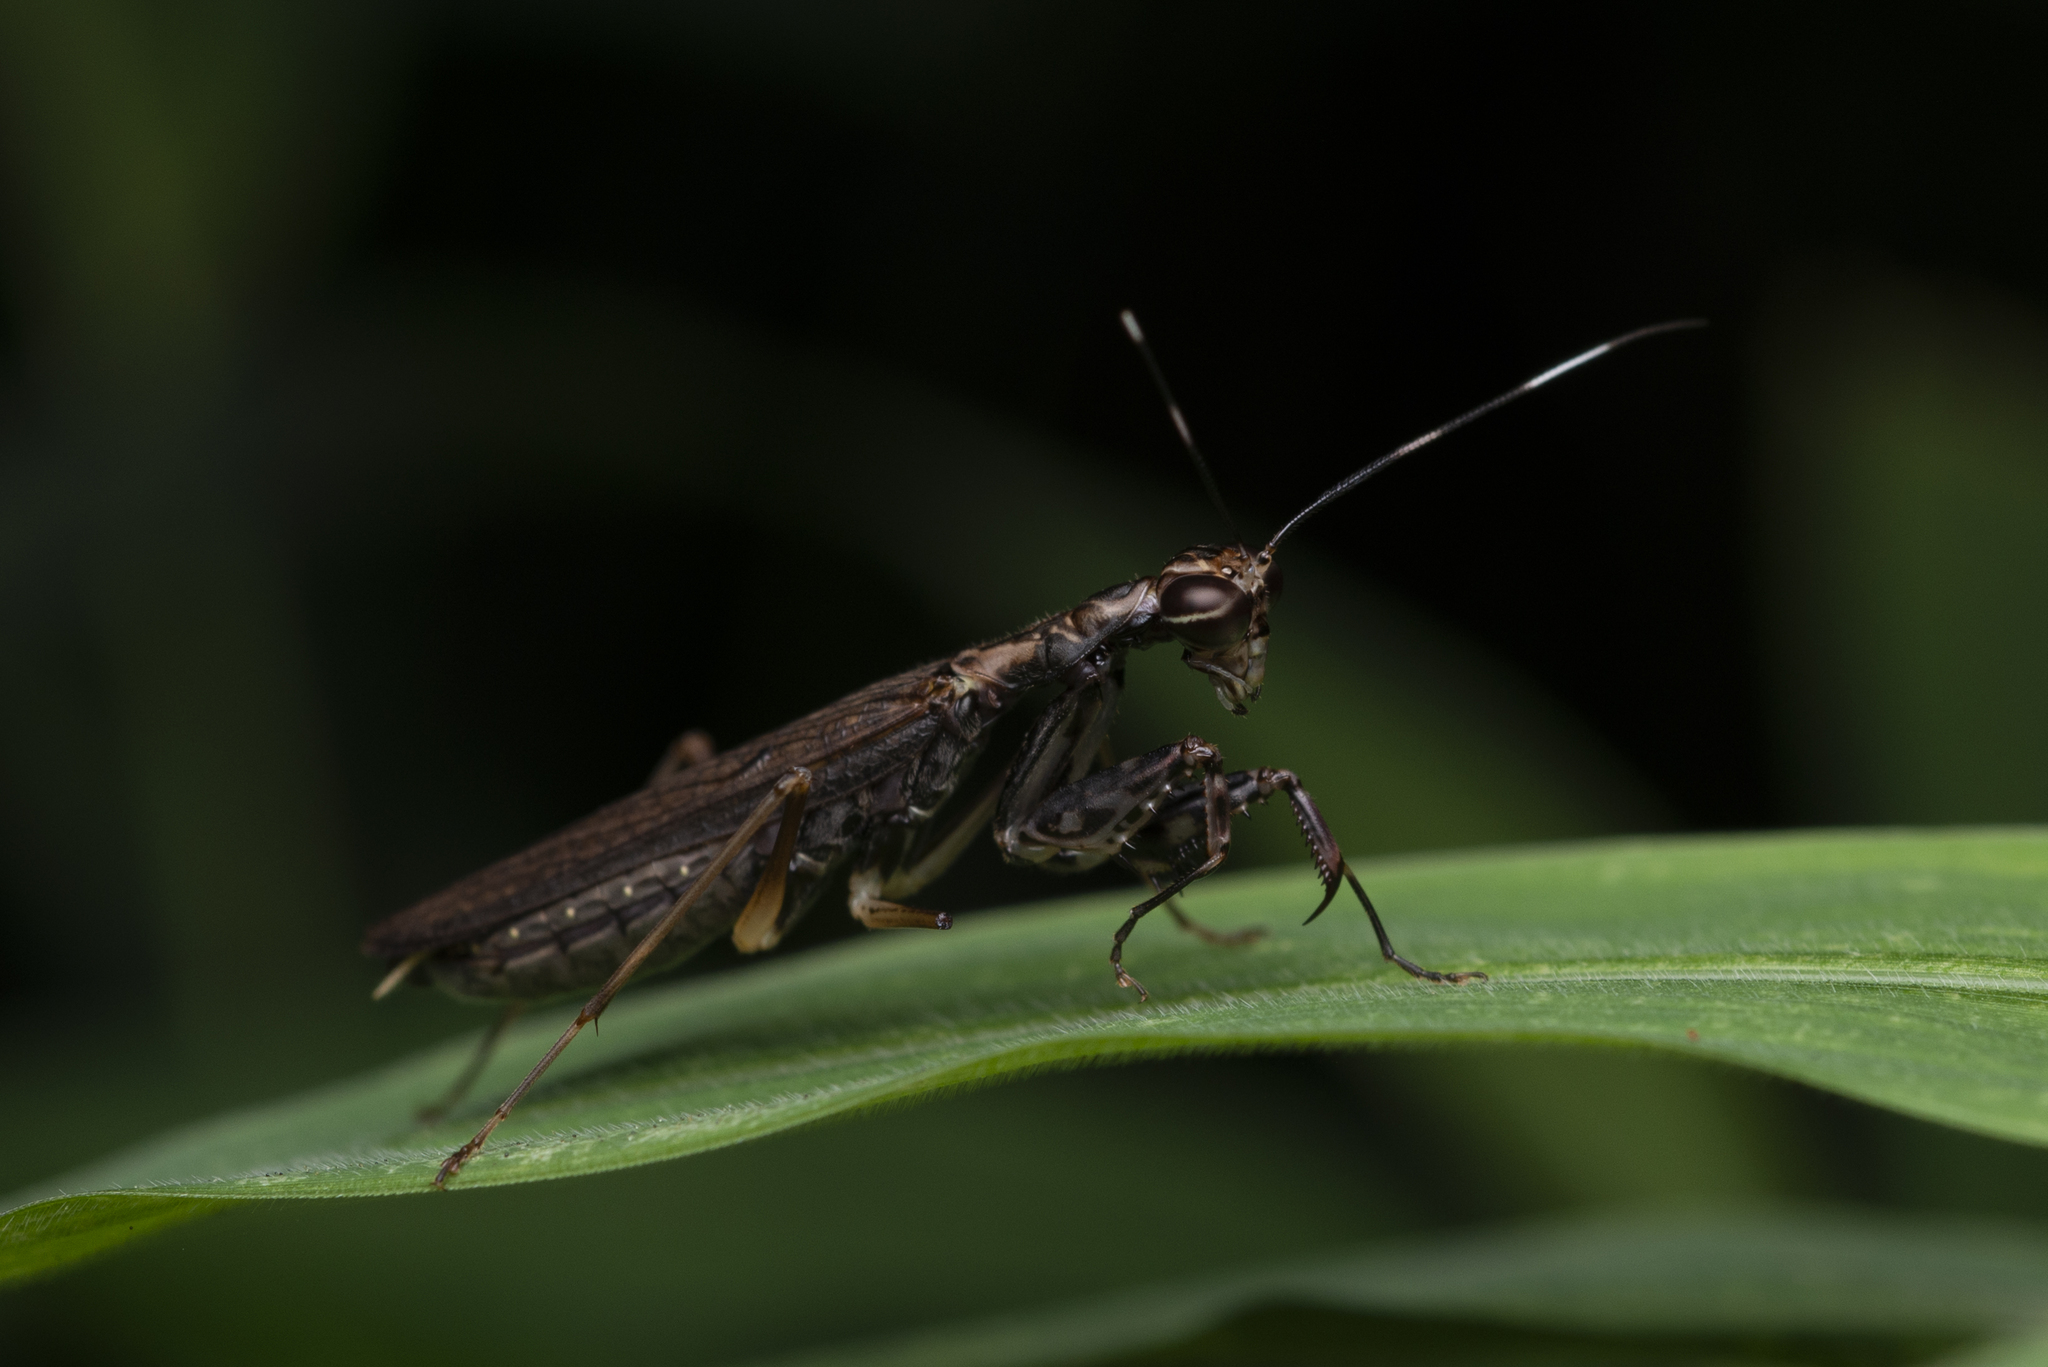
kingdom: Animalia
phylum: Arthropoda
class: Insecta
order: Mantodea
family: Gonypetidae
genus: Spilomantis
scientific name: Spilomantis occipitalis
